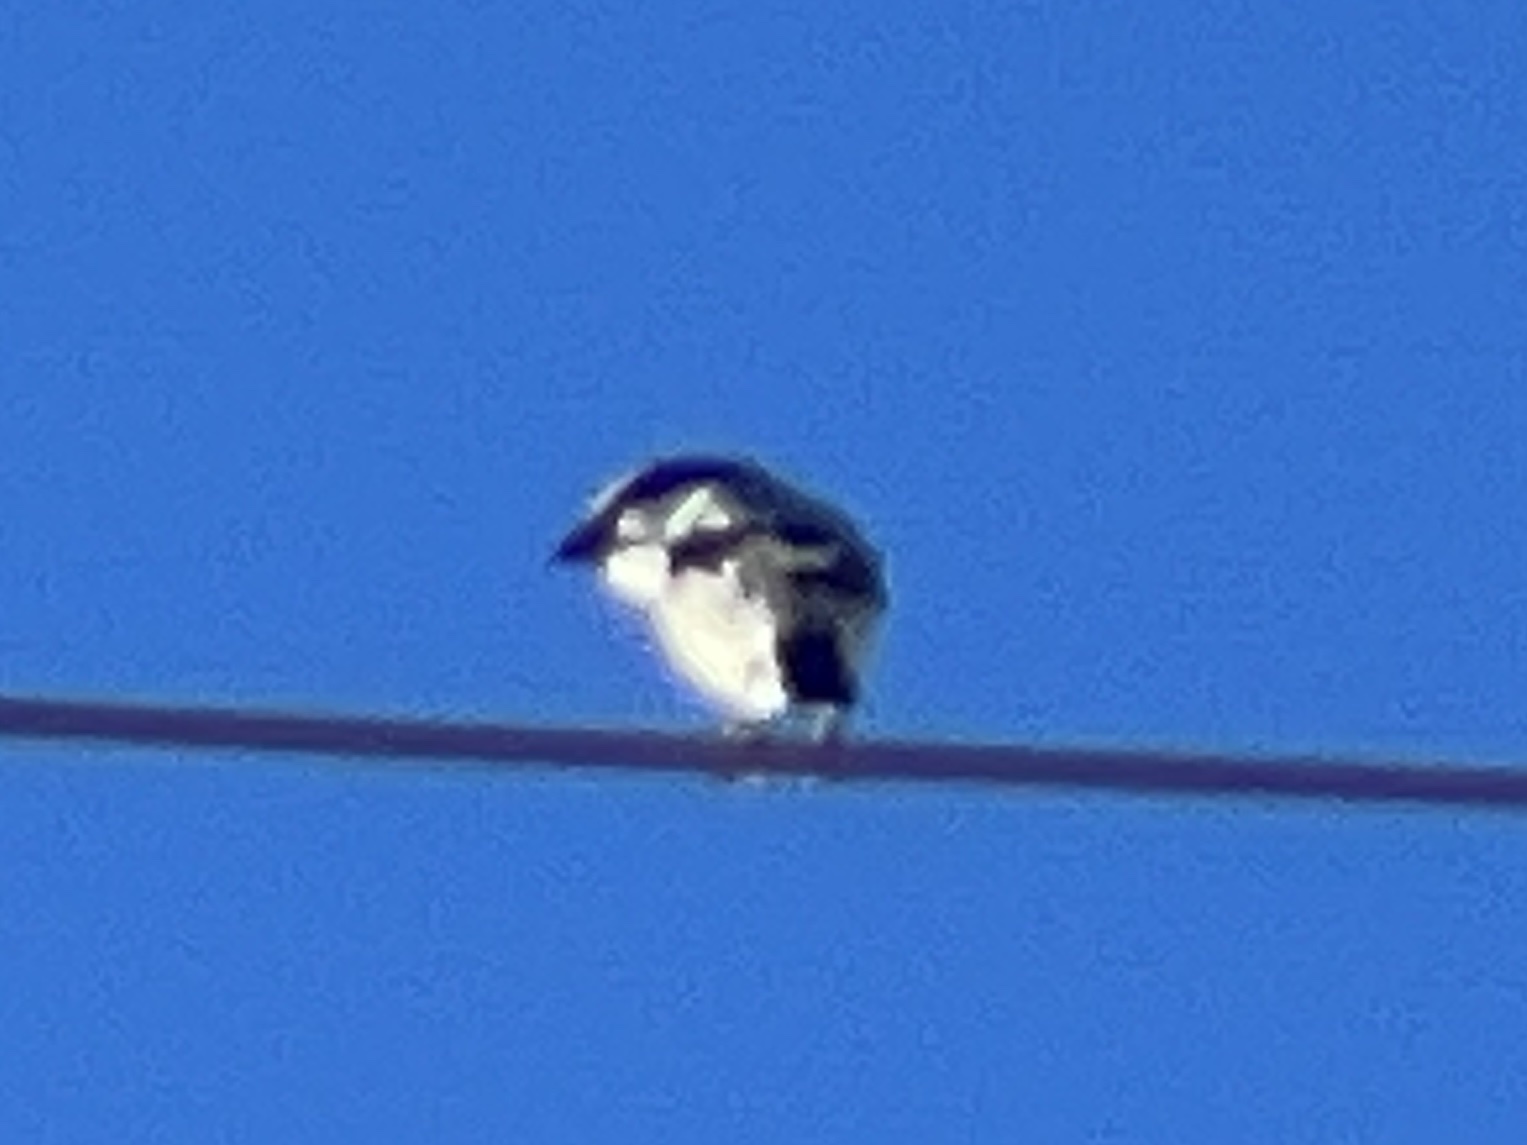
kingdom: Animalia
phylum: Chordata
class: Aves
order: Passeriformes
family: Laniidae
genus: Lanius
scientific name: Lanius ludovicianus
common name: Loggerhead shrike
